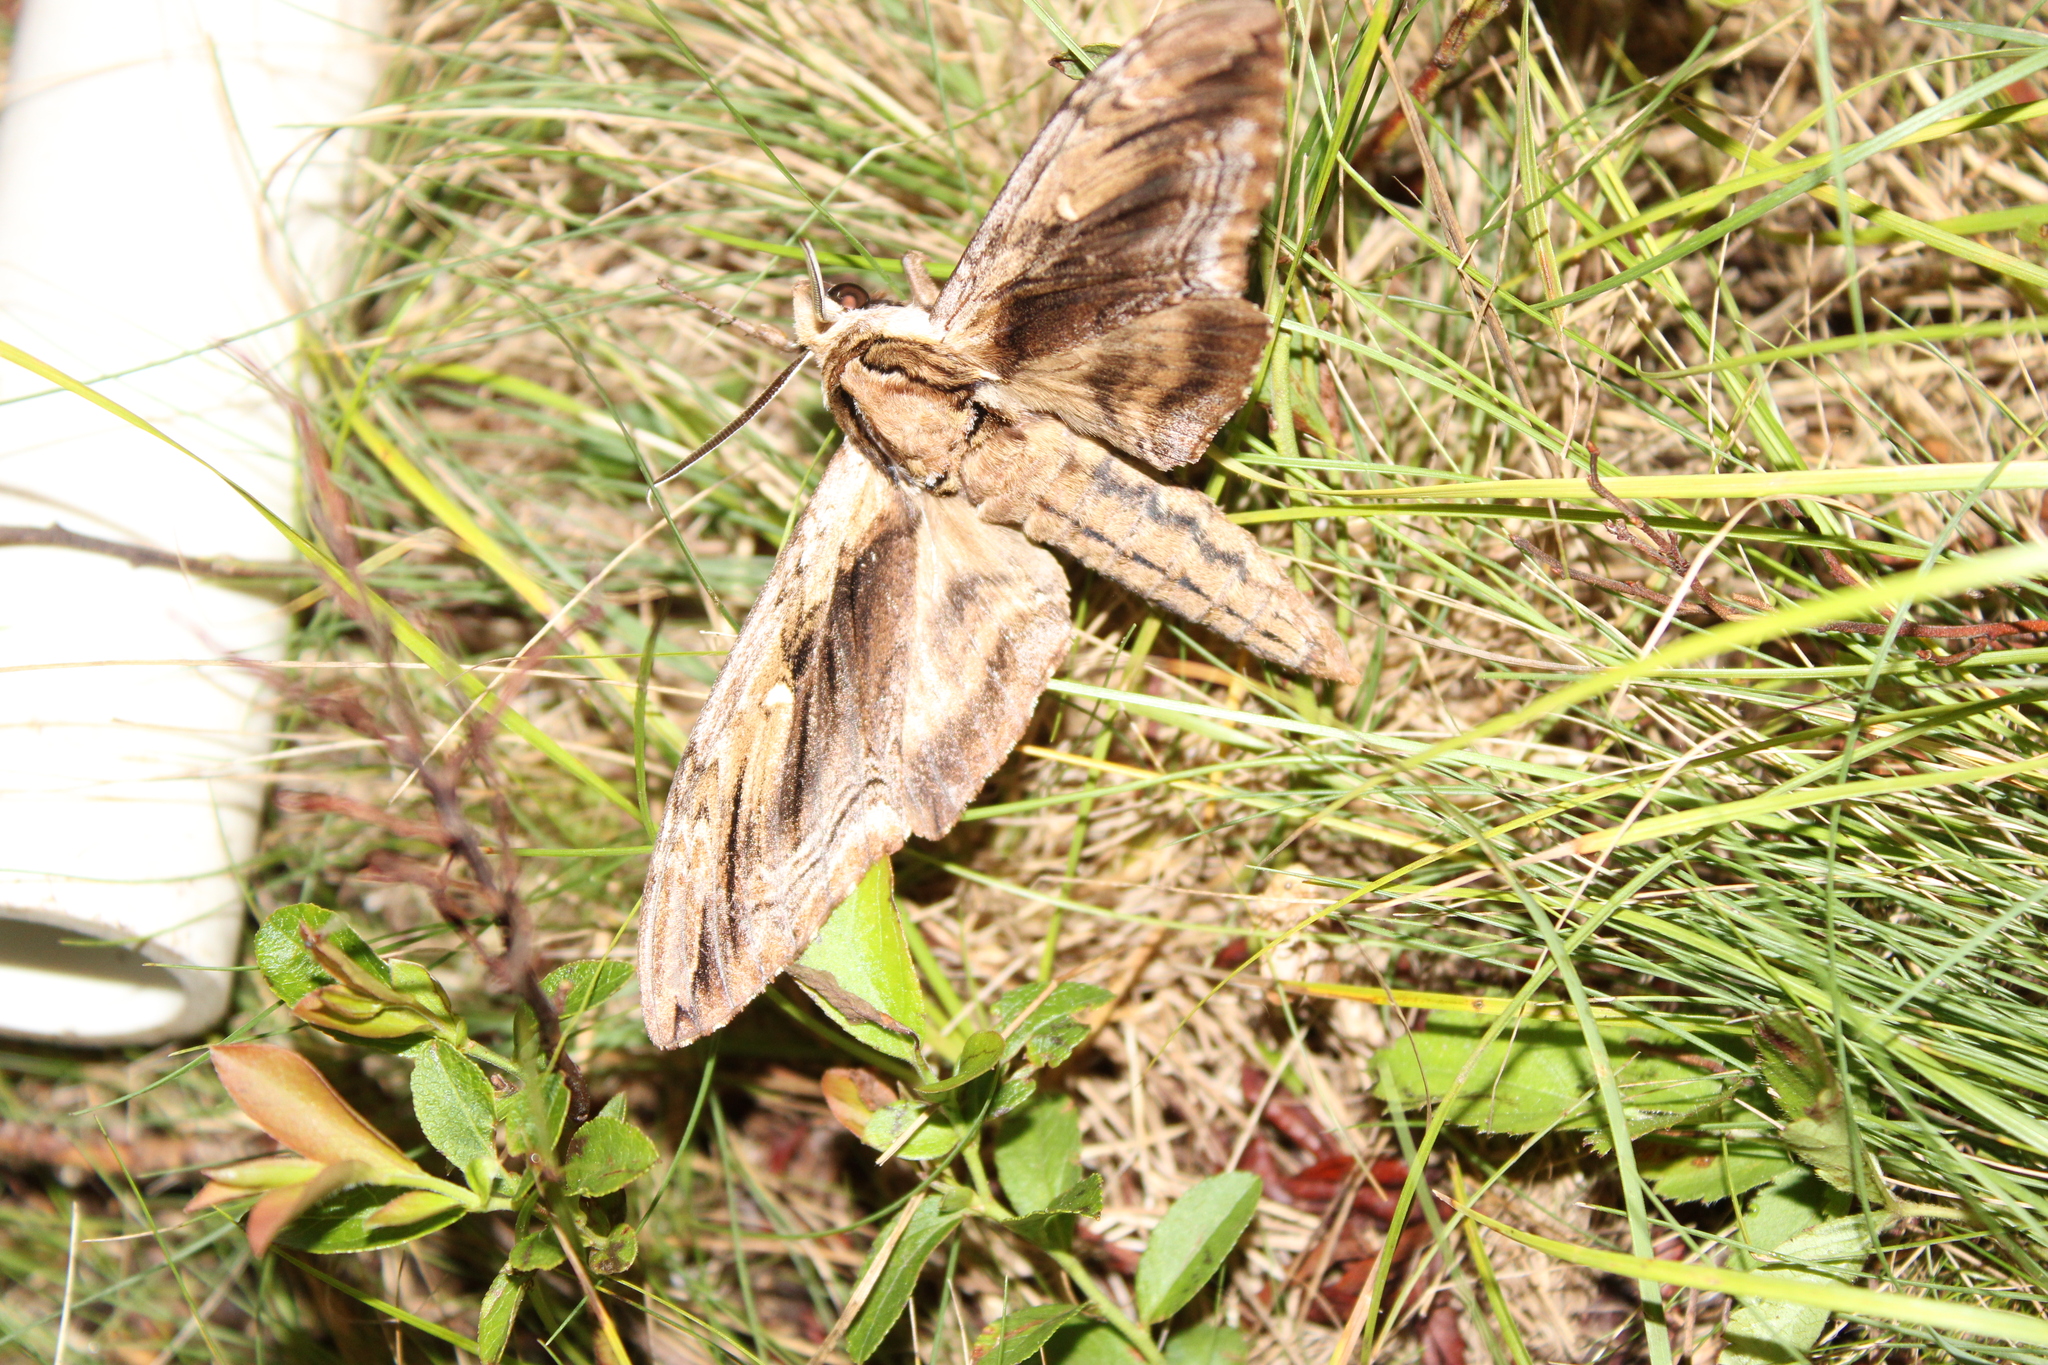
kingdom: Animalia
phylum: Arthropoda
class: Insecta
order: Lepidoptera
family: Sphingidae
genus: Ceratomia
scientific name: Ceratomia amyntor
